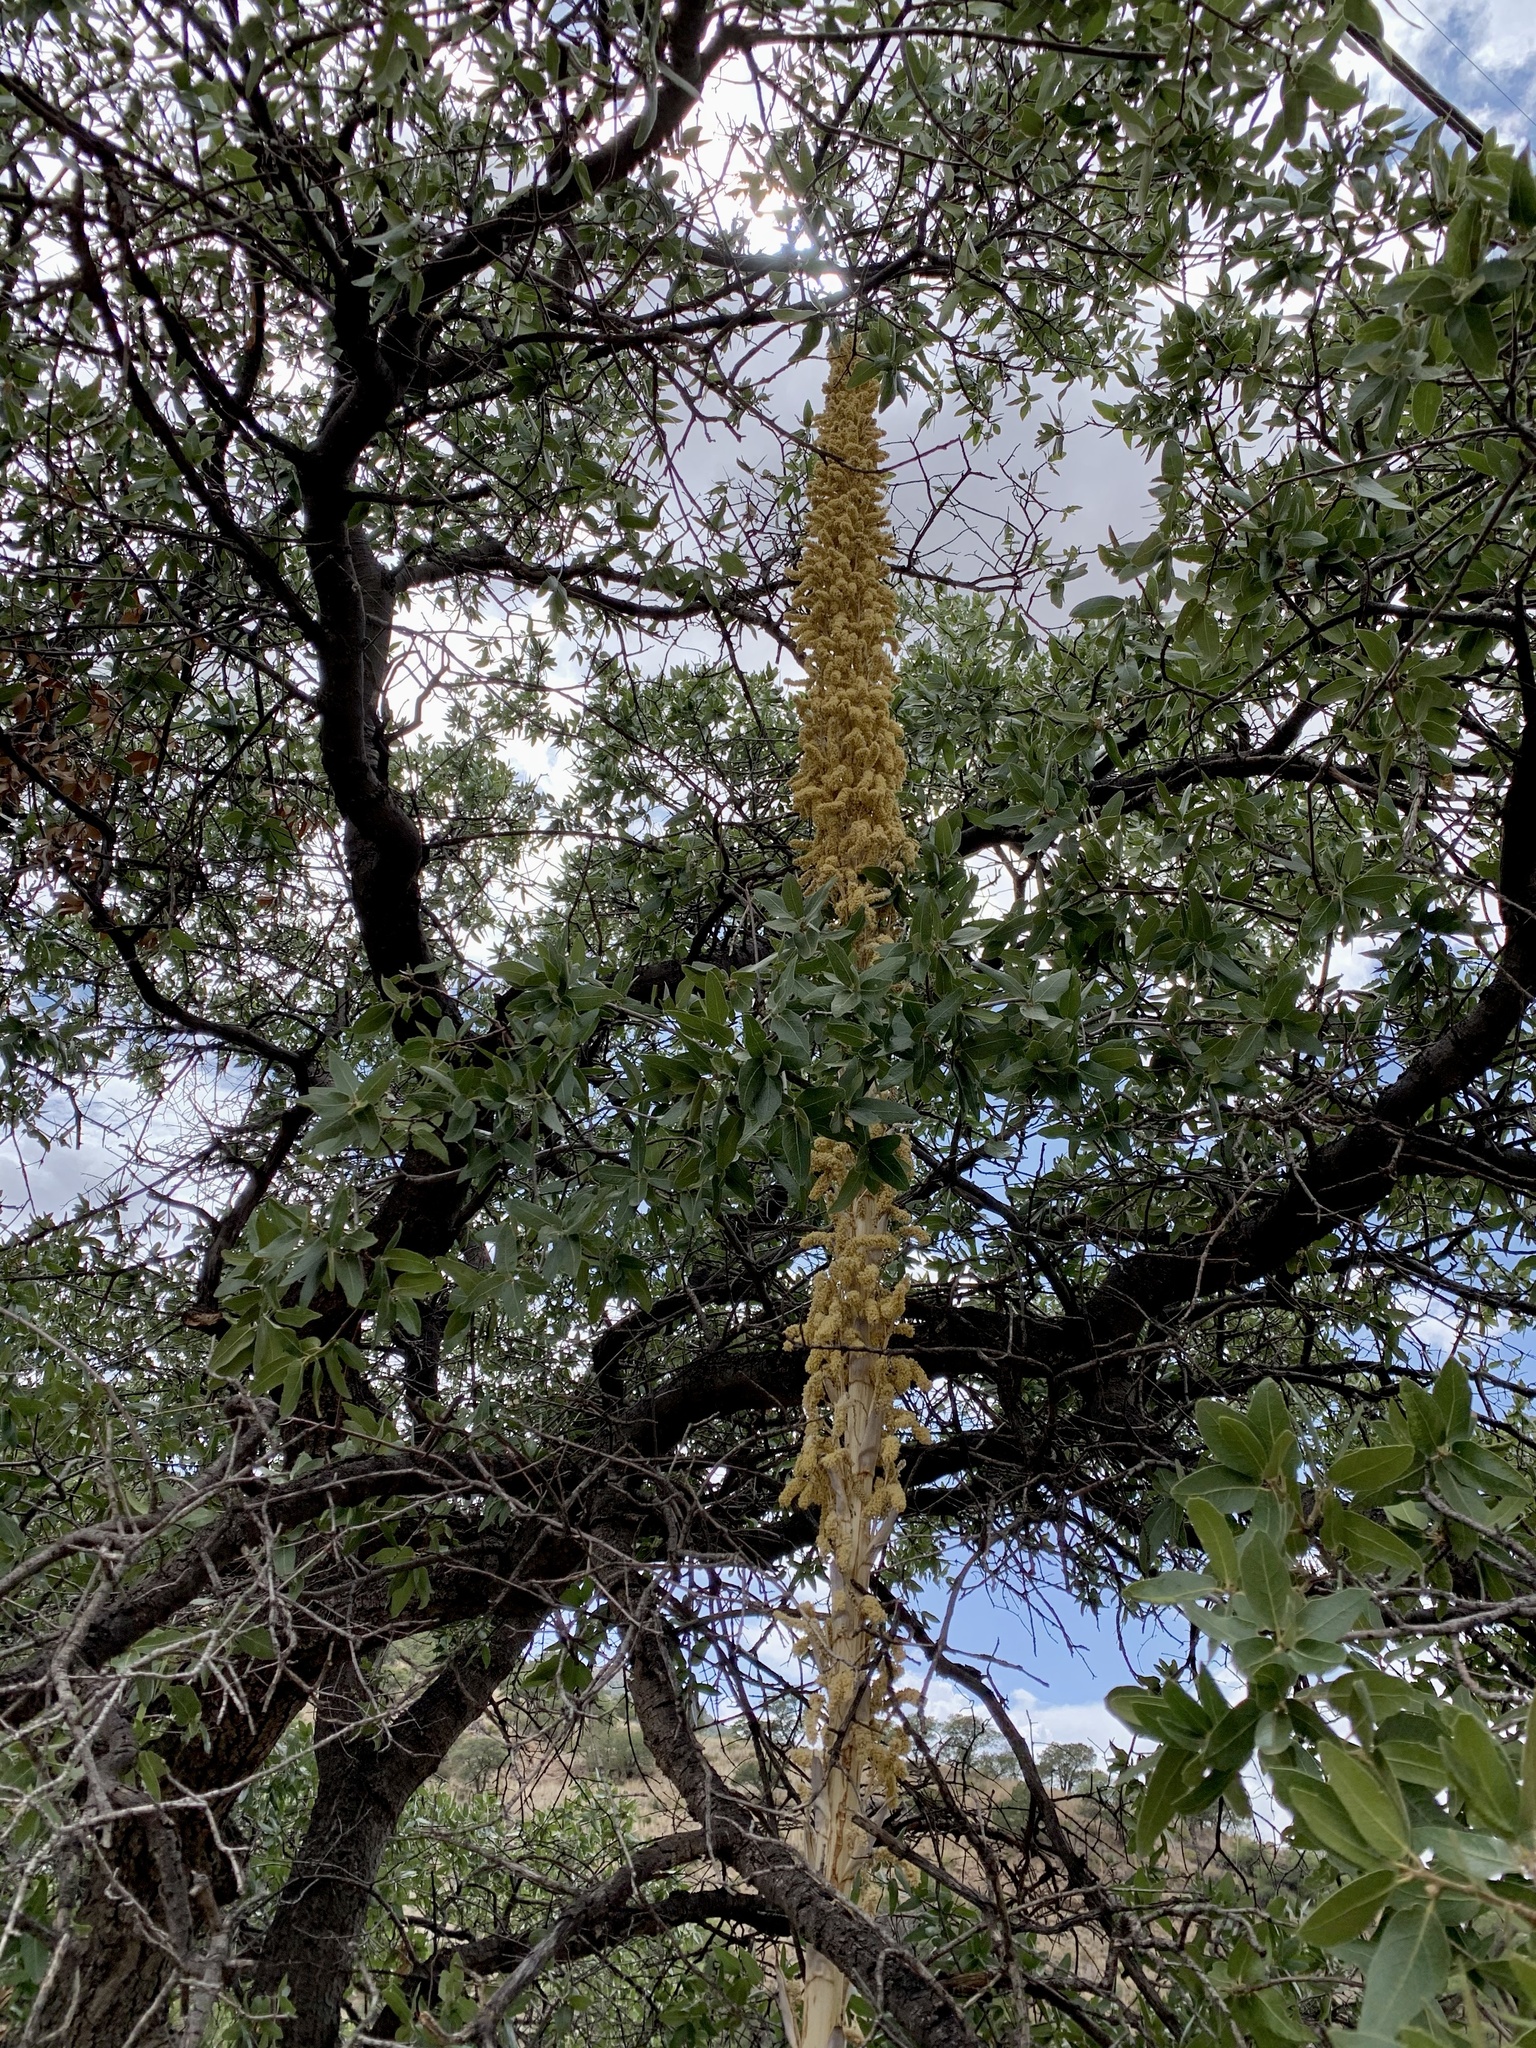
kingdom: Plantae
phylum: Tracheophyta
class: Liliopsida
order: Asparagales
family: Asparagaceae
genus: Dasylirion
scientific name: Dasylirion wheeleri
